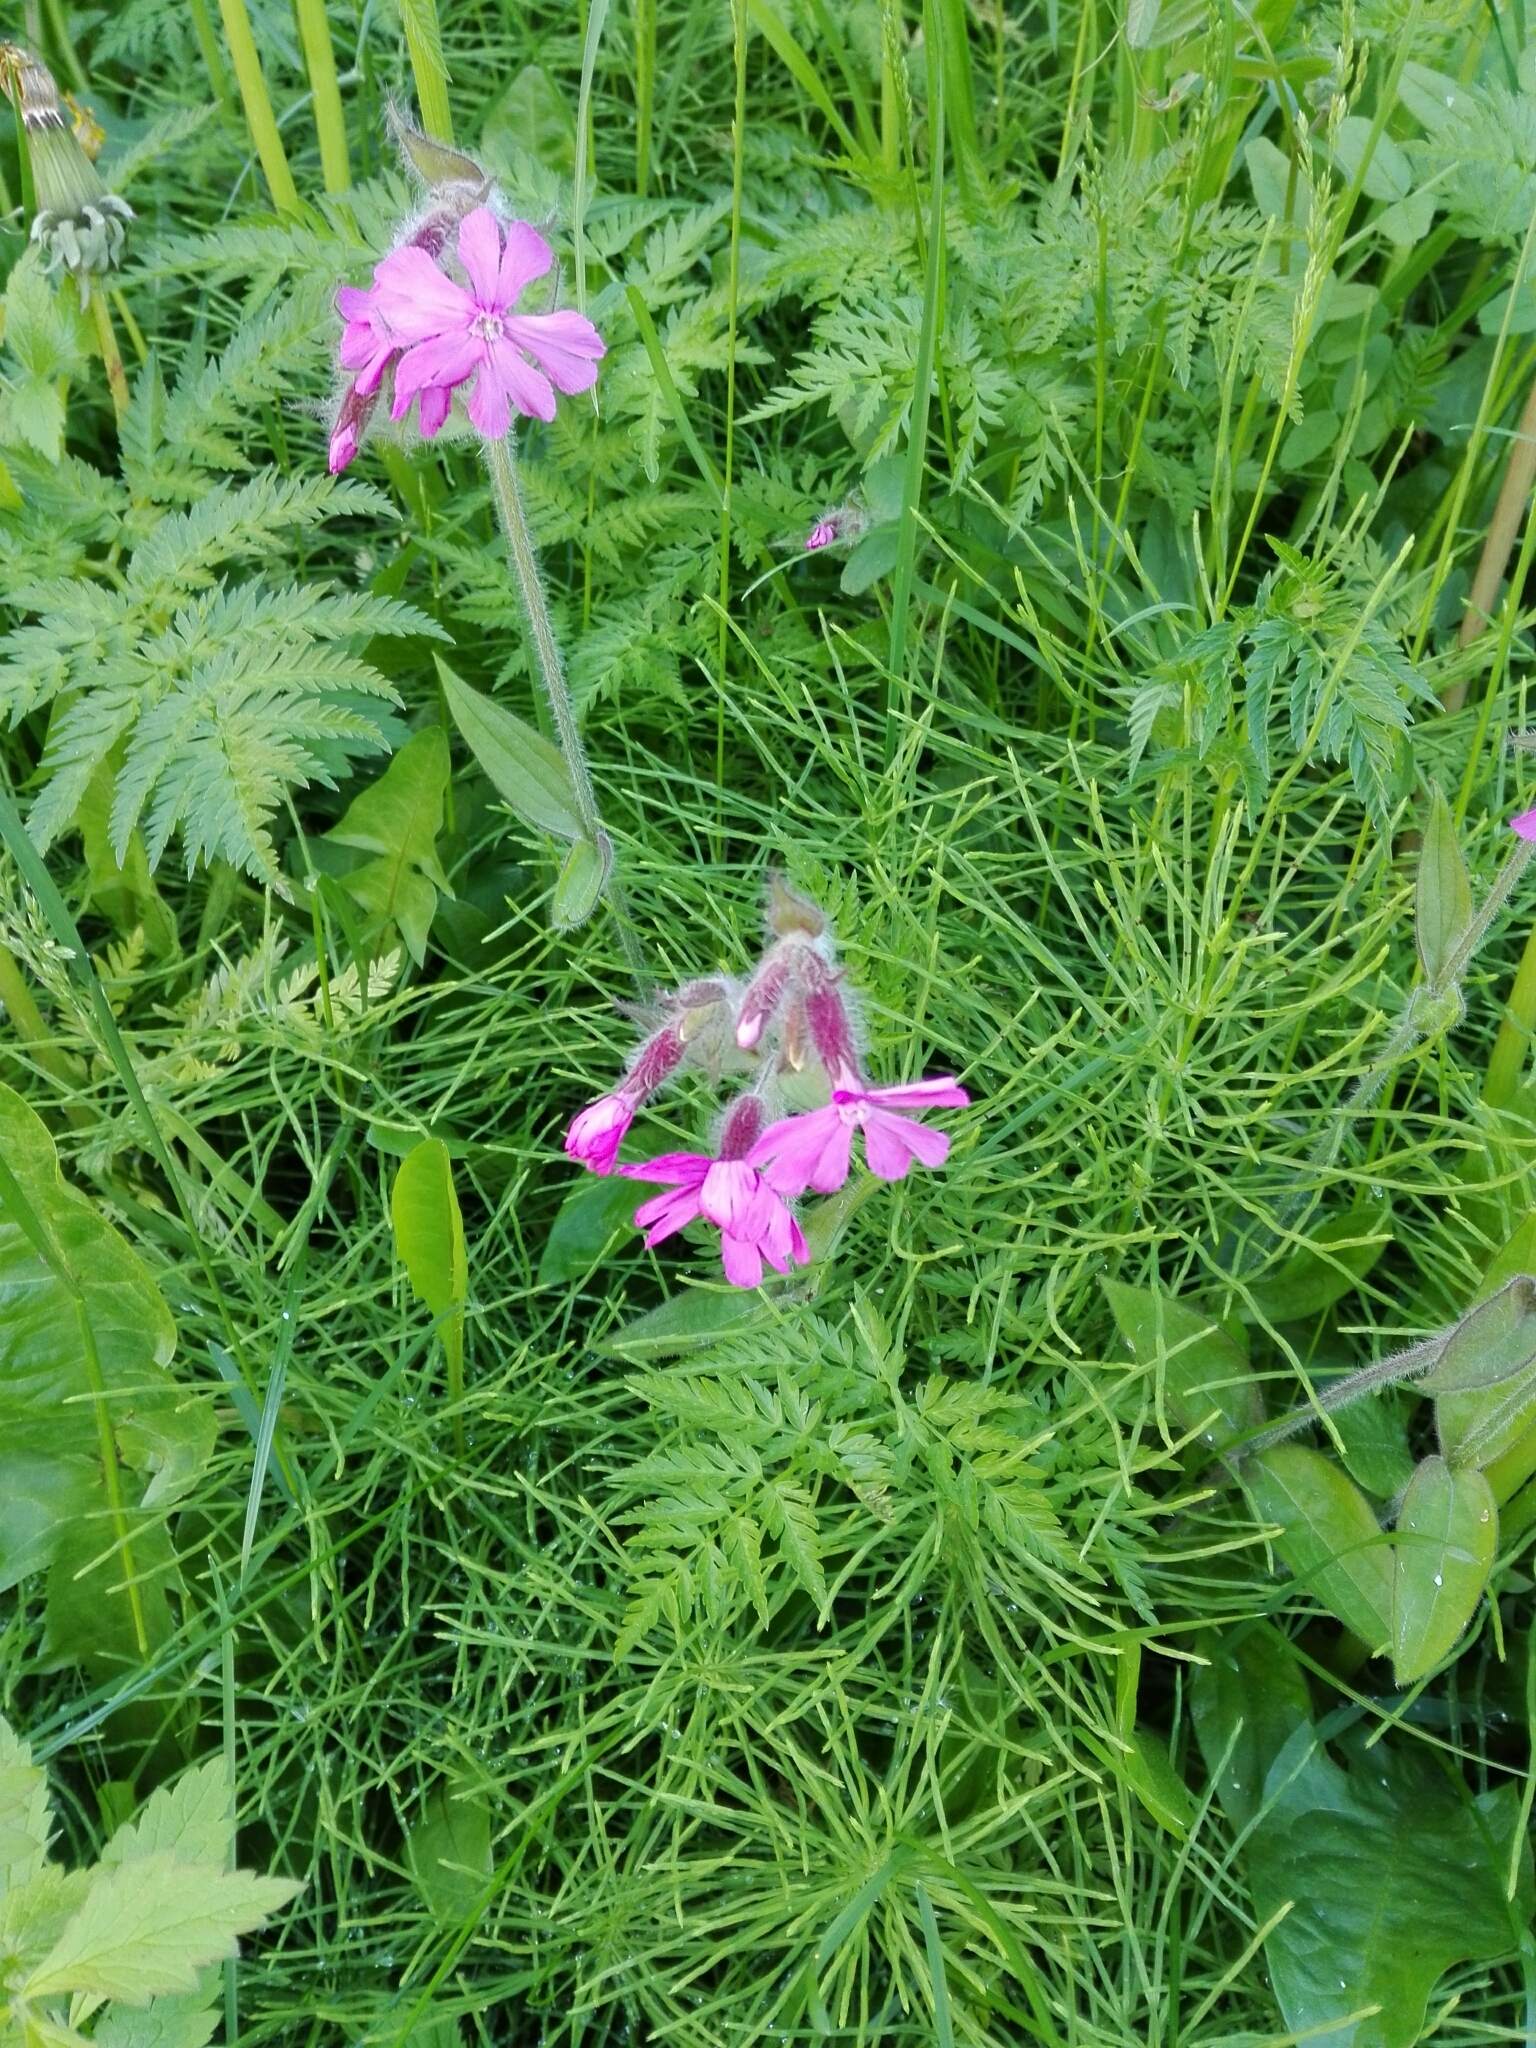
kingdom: Plantae
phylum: Tracheophyta
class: Magnoliopsida
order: Caryophyllales
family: Caryophyllaceae
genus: Silene
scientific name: Silene dioica
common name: Red campion
